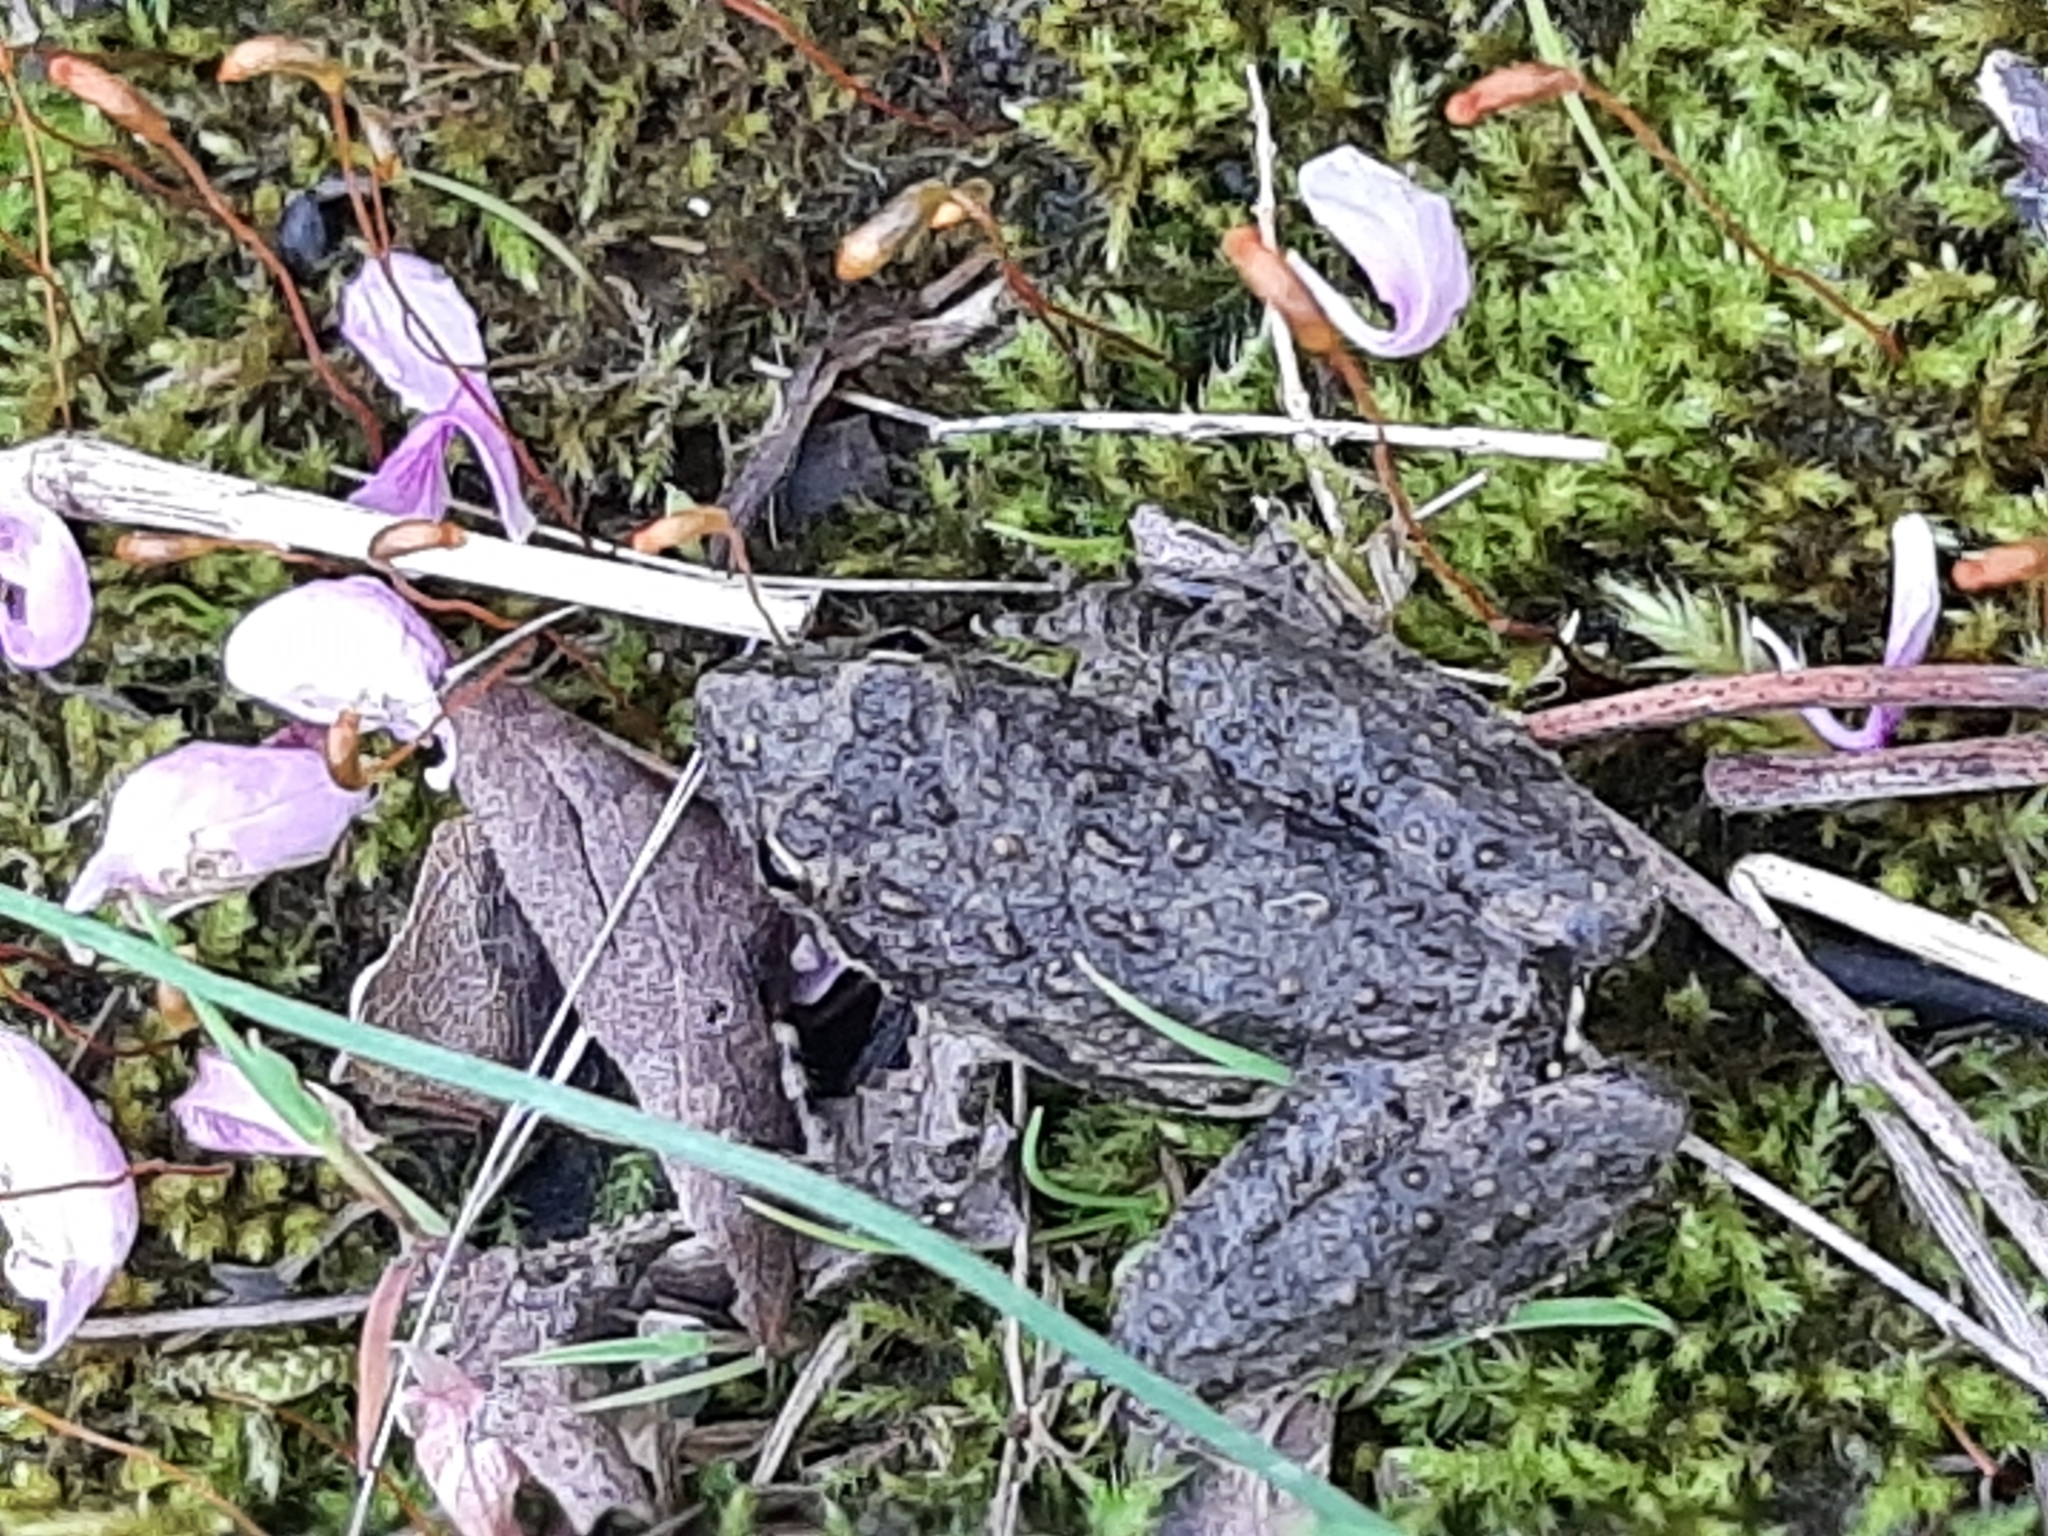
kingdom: Animalia
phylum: Chordata
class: Amphibia
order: Anura
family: Hylidae
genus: Acris
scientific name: Acris blanchardi
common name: Blanchard's cricket frog
